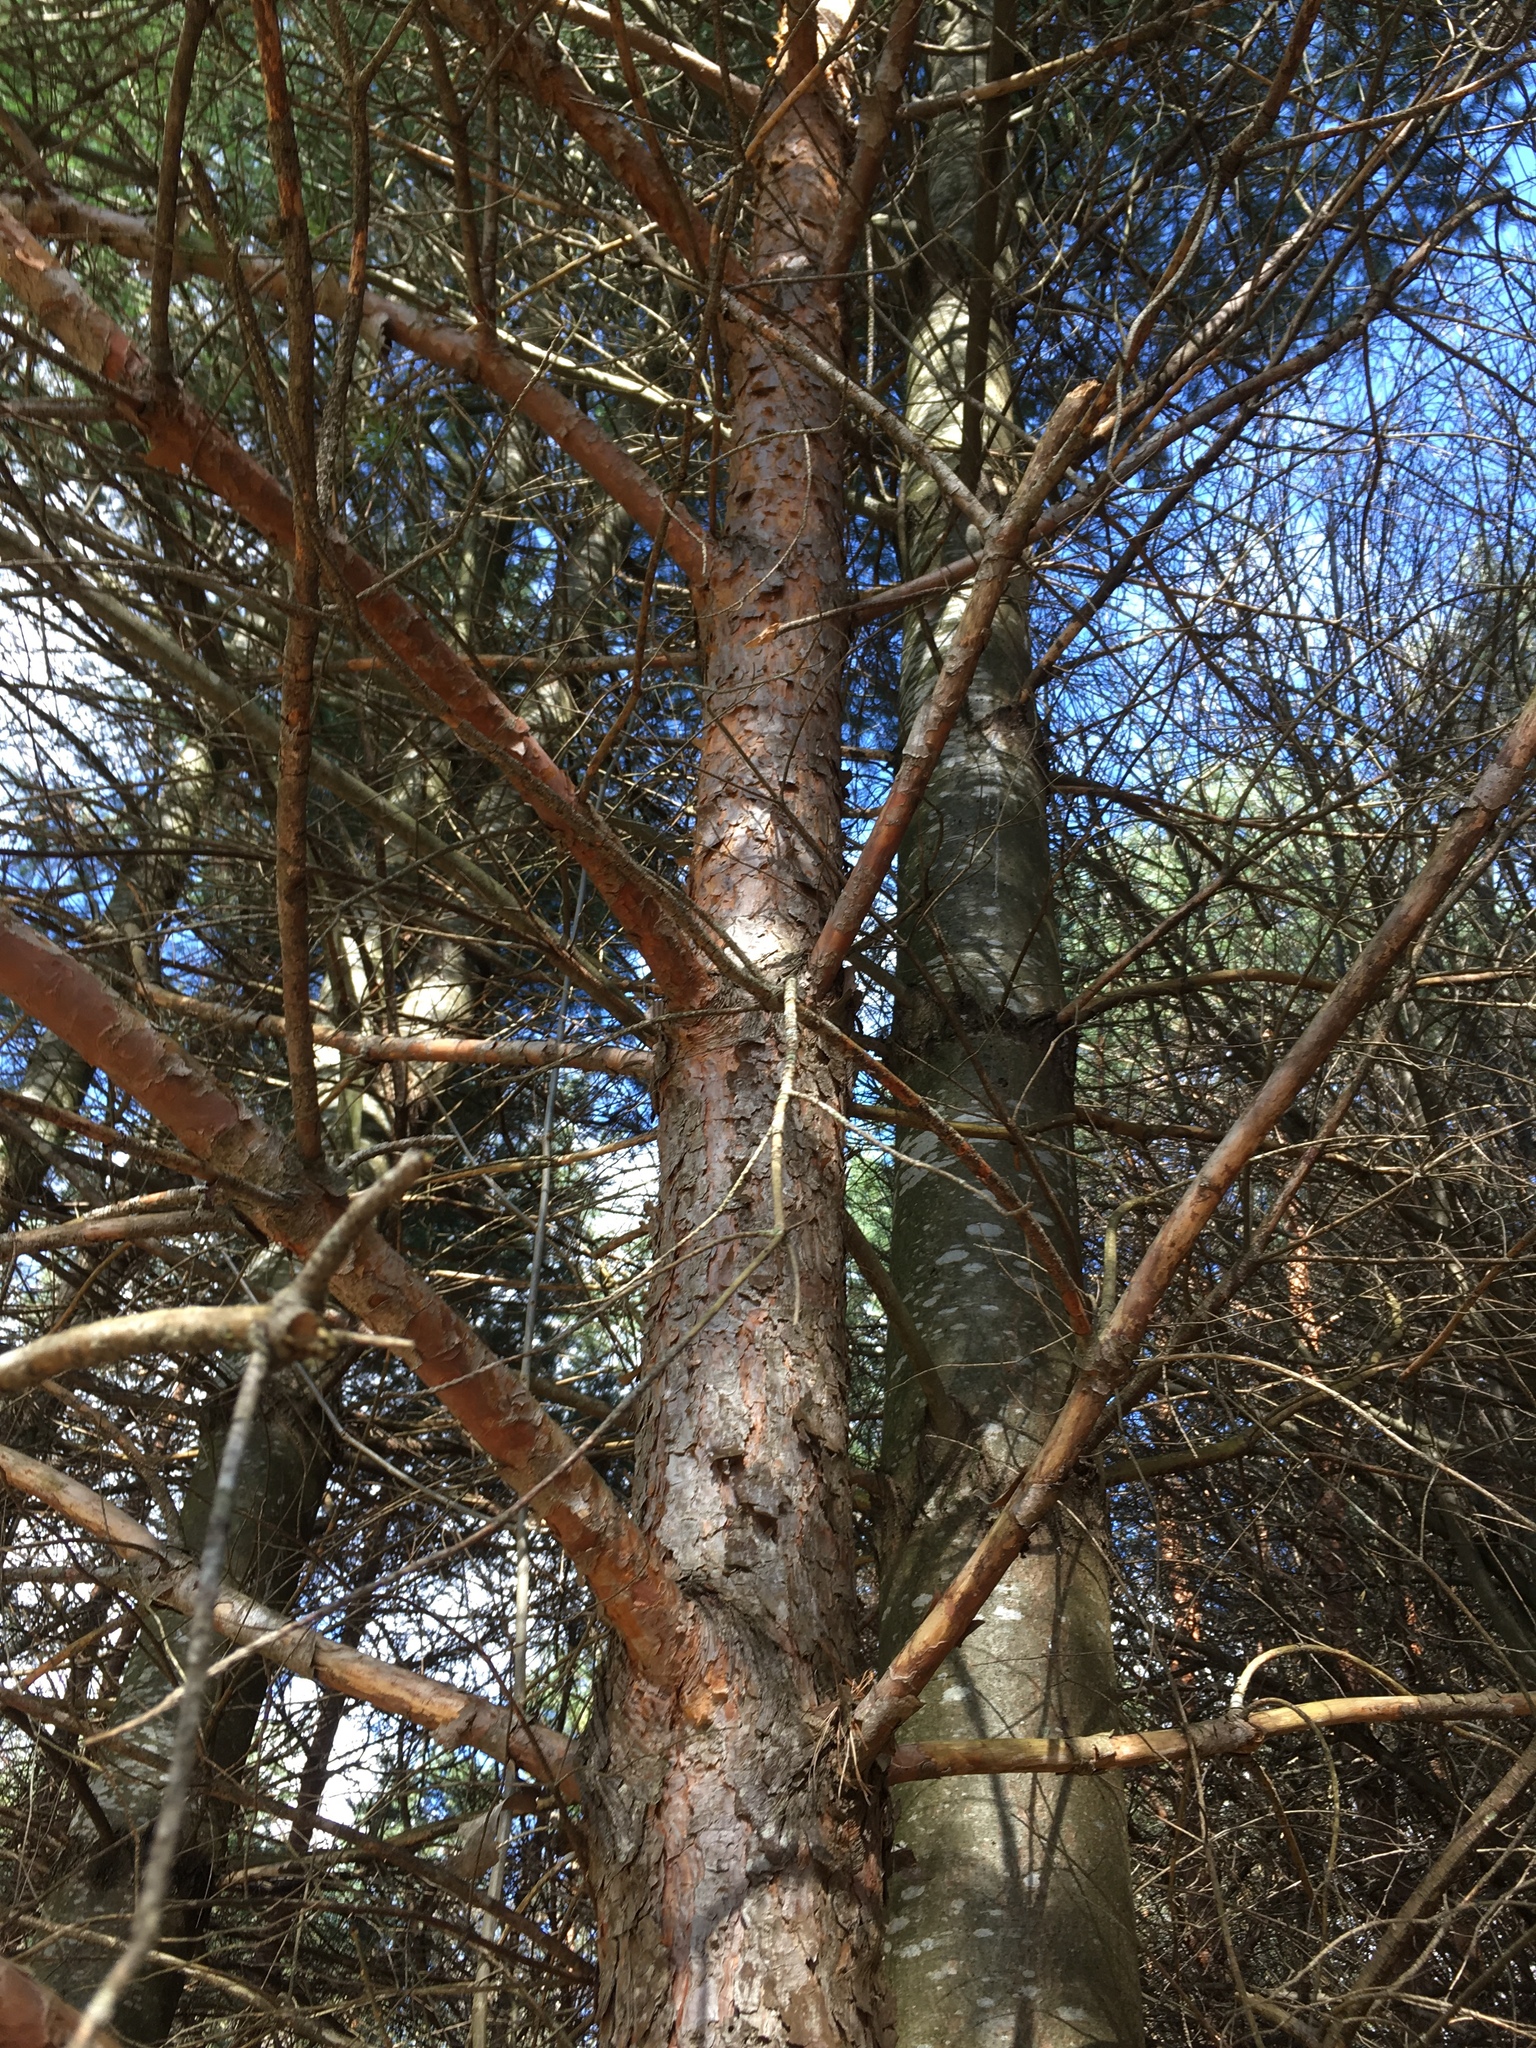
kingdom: Plantae
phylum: Tracheophyta
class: Pinopsida
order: Pinales
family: Pinaceae
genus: Pinus
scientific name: Pinus sylvestris
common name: Scots pine
